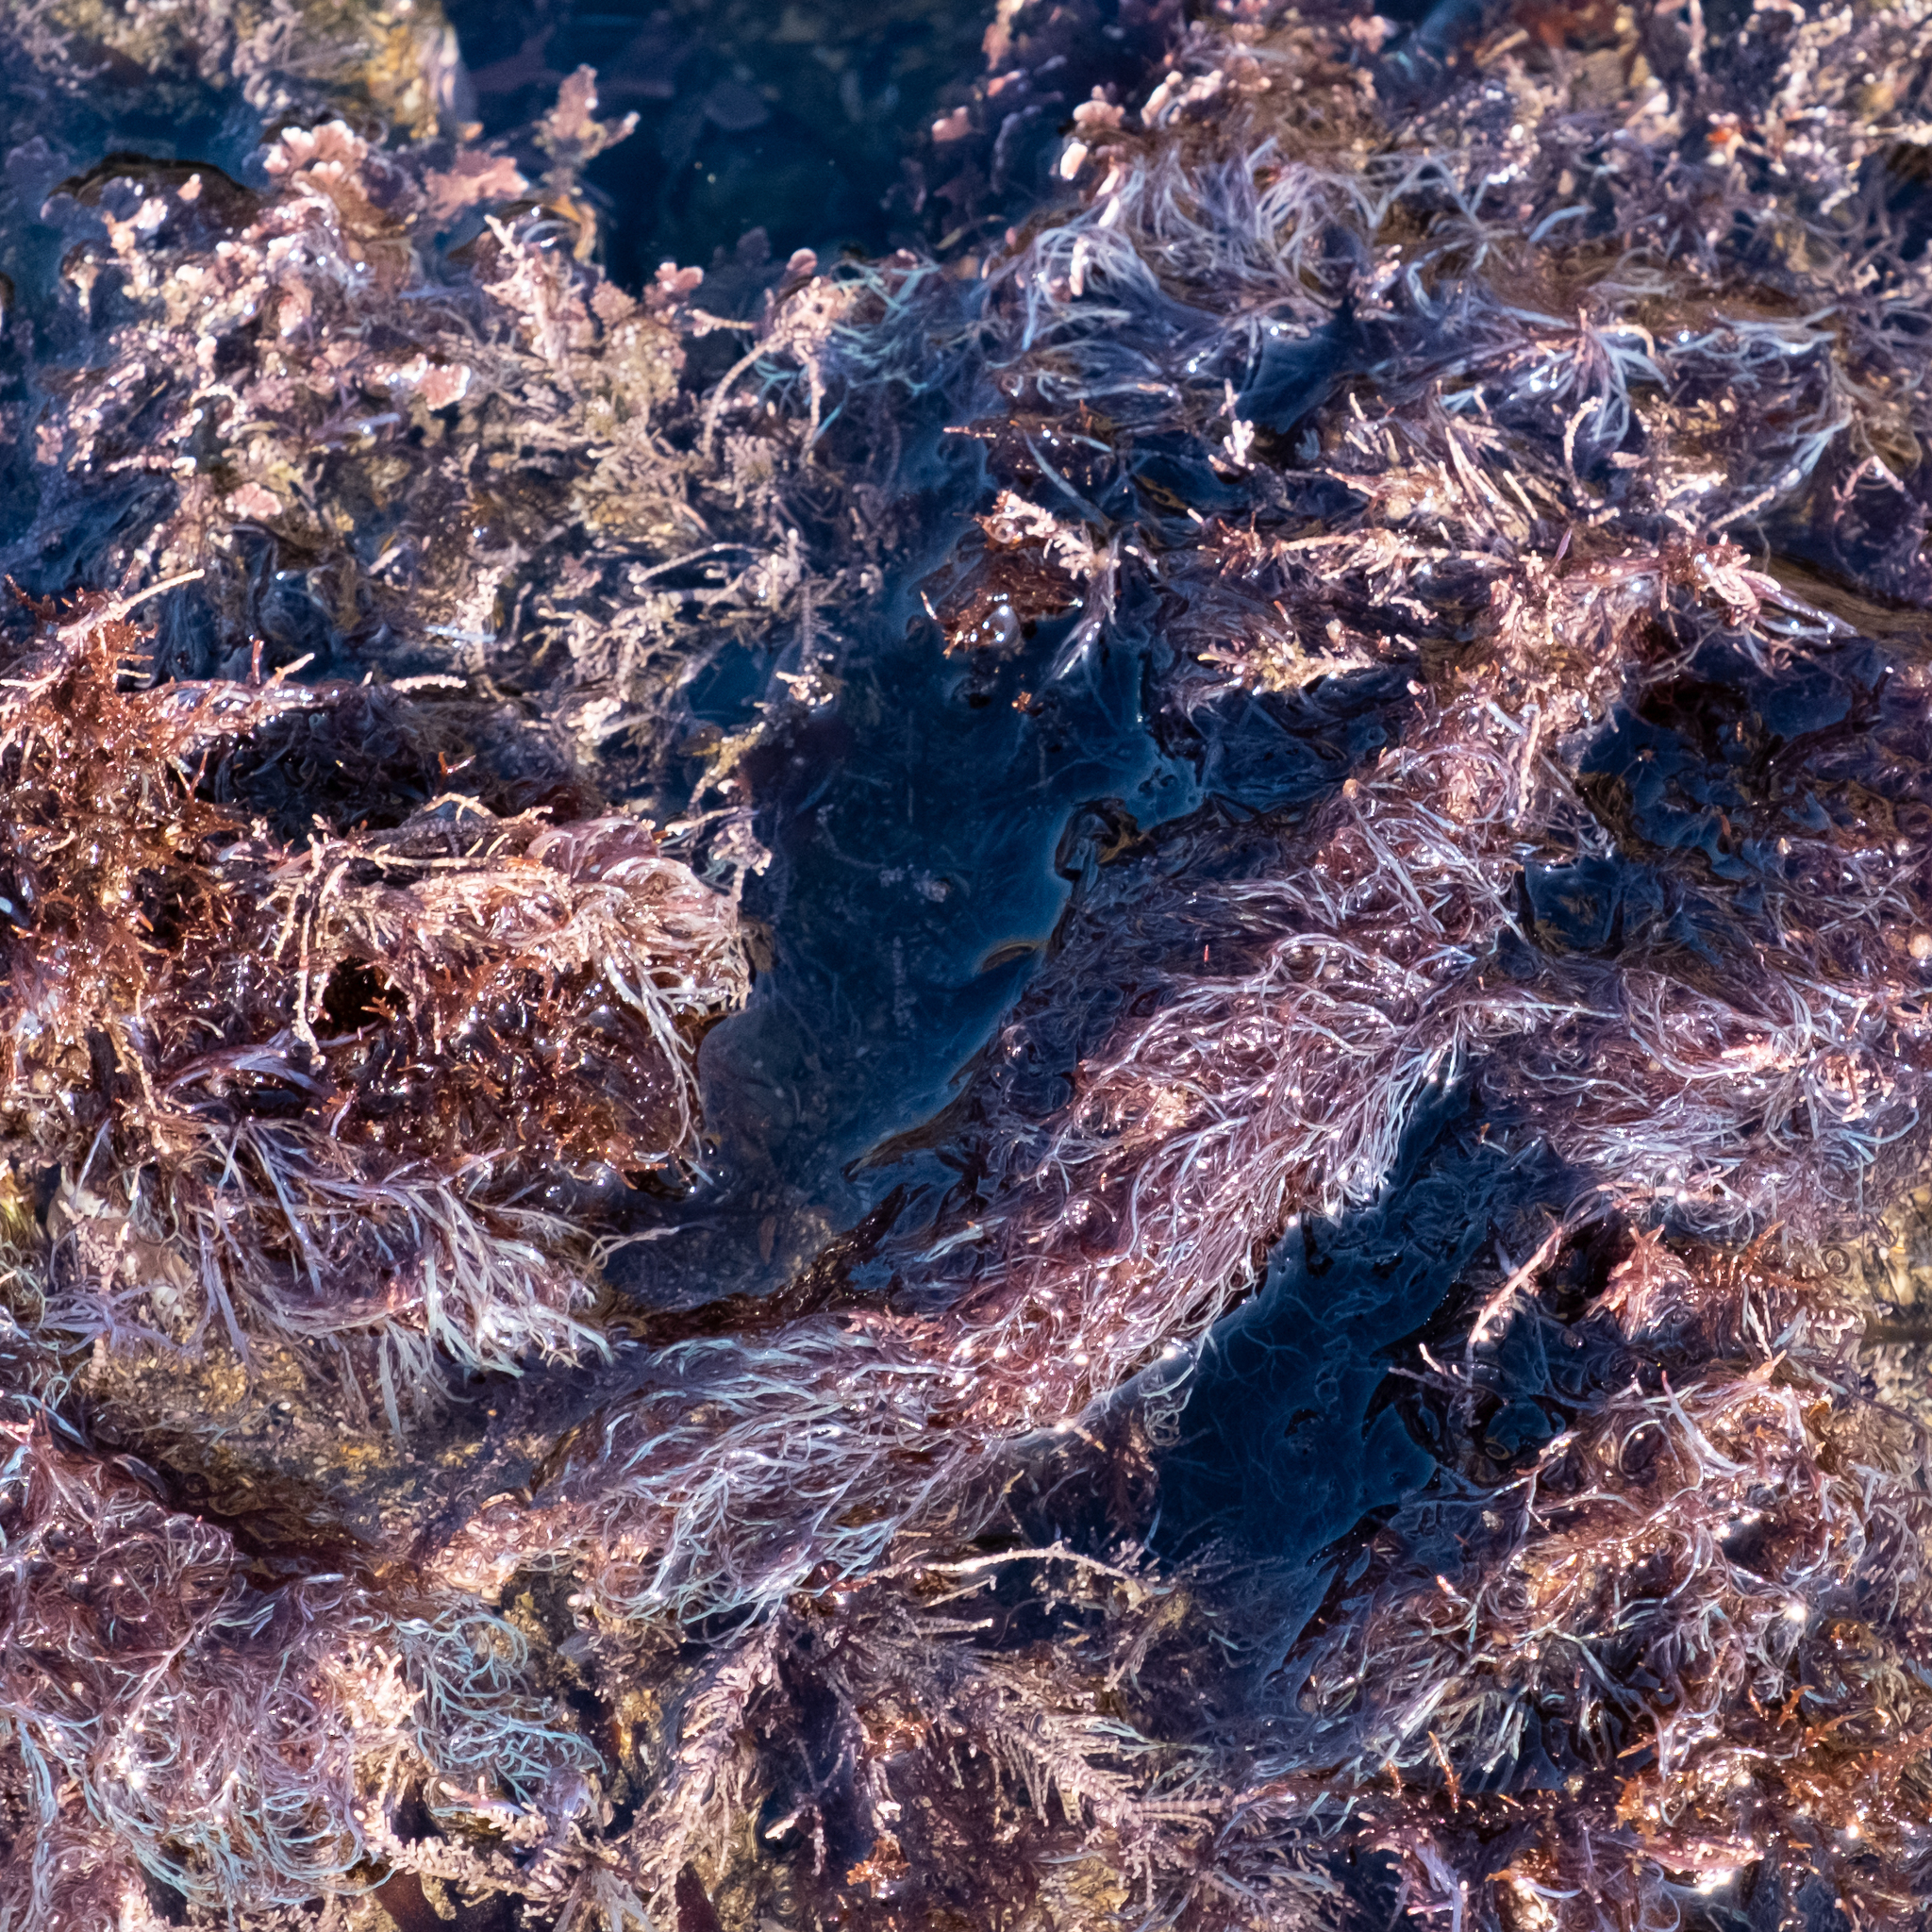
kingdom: Plantae
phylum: Rhodophyta
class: Florideophyceae
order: Ceramiales
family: Rhodomelaceae
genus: Chondria
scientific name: Chondria acrorhizophora
